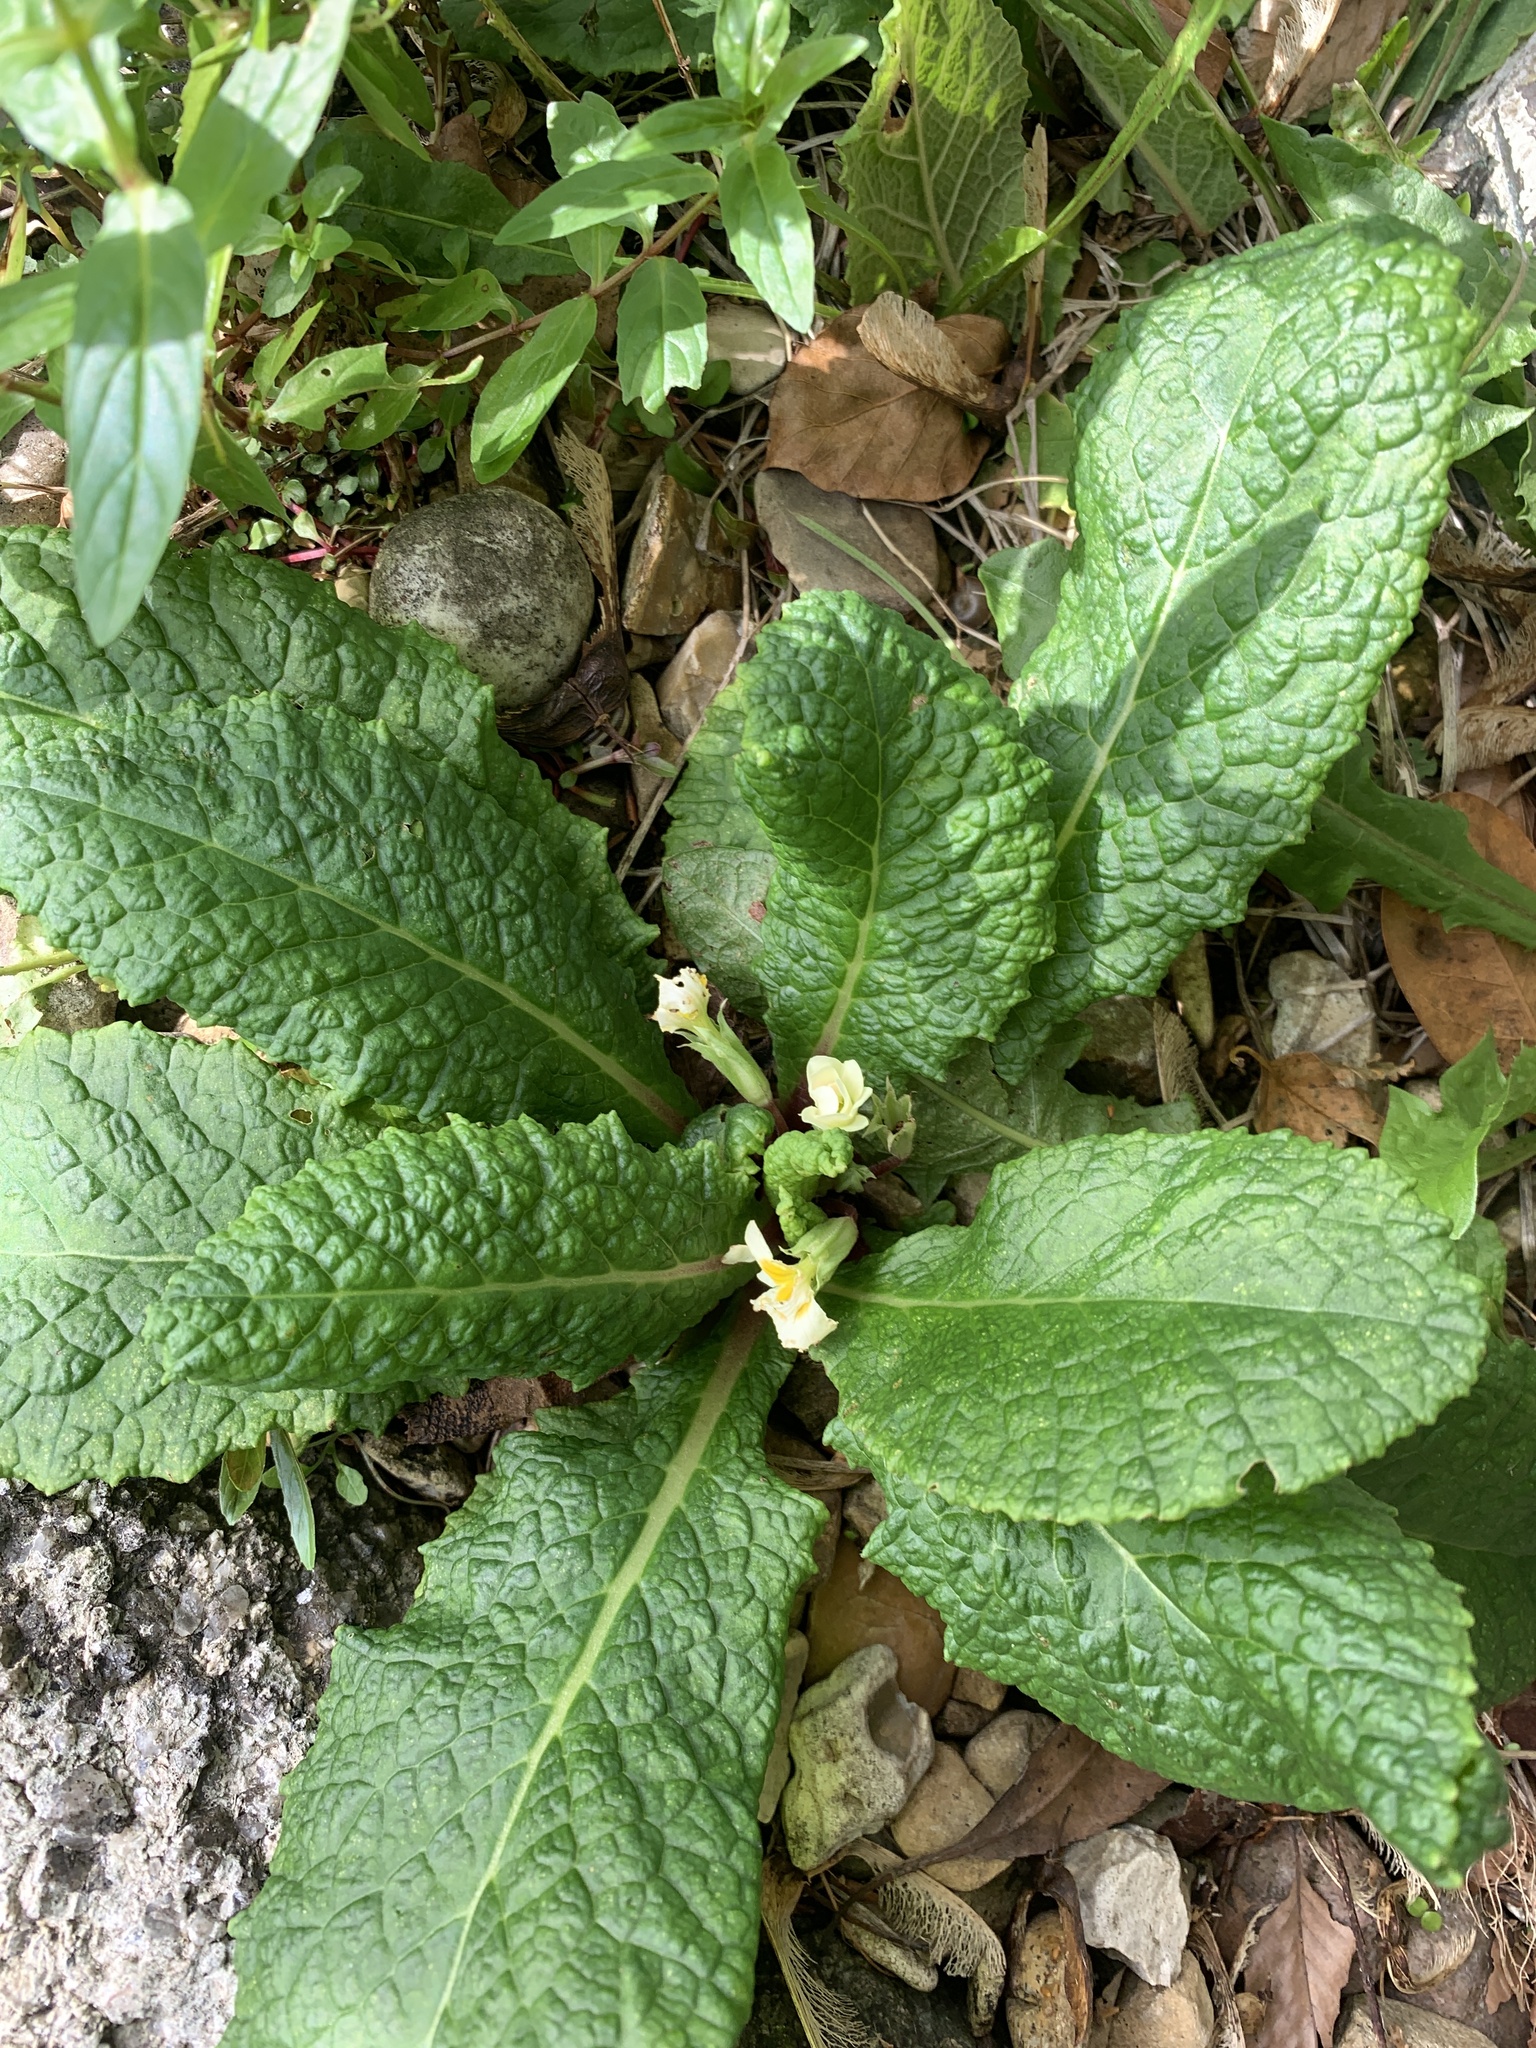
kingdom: Plantae
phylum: Tracheophyta
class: Magnoliopsida
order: Ericales
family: Primulaceae
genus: Primula
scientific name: Primula vulgaris
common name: Primrose
